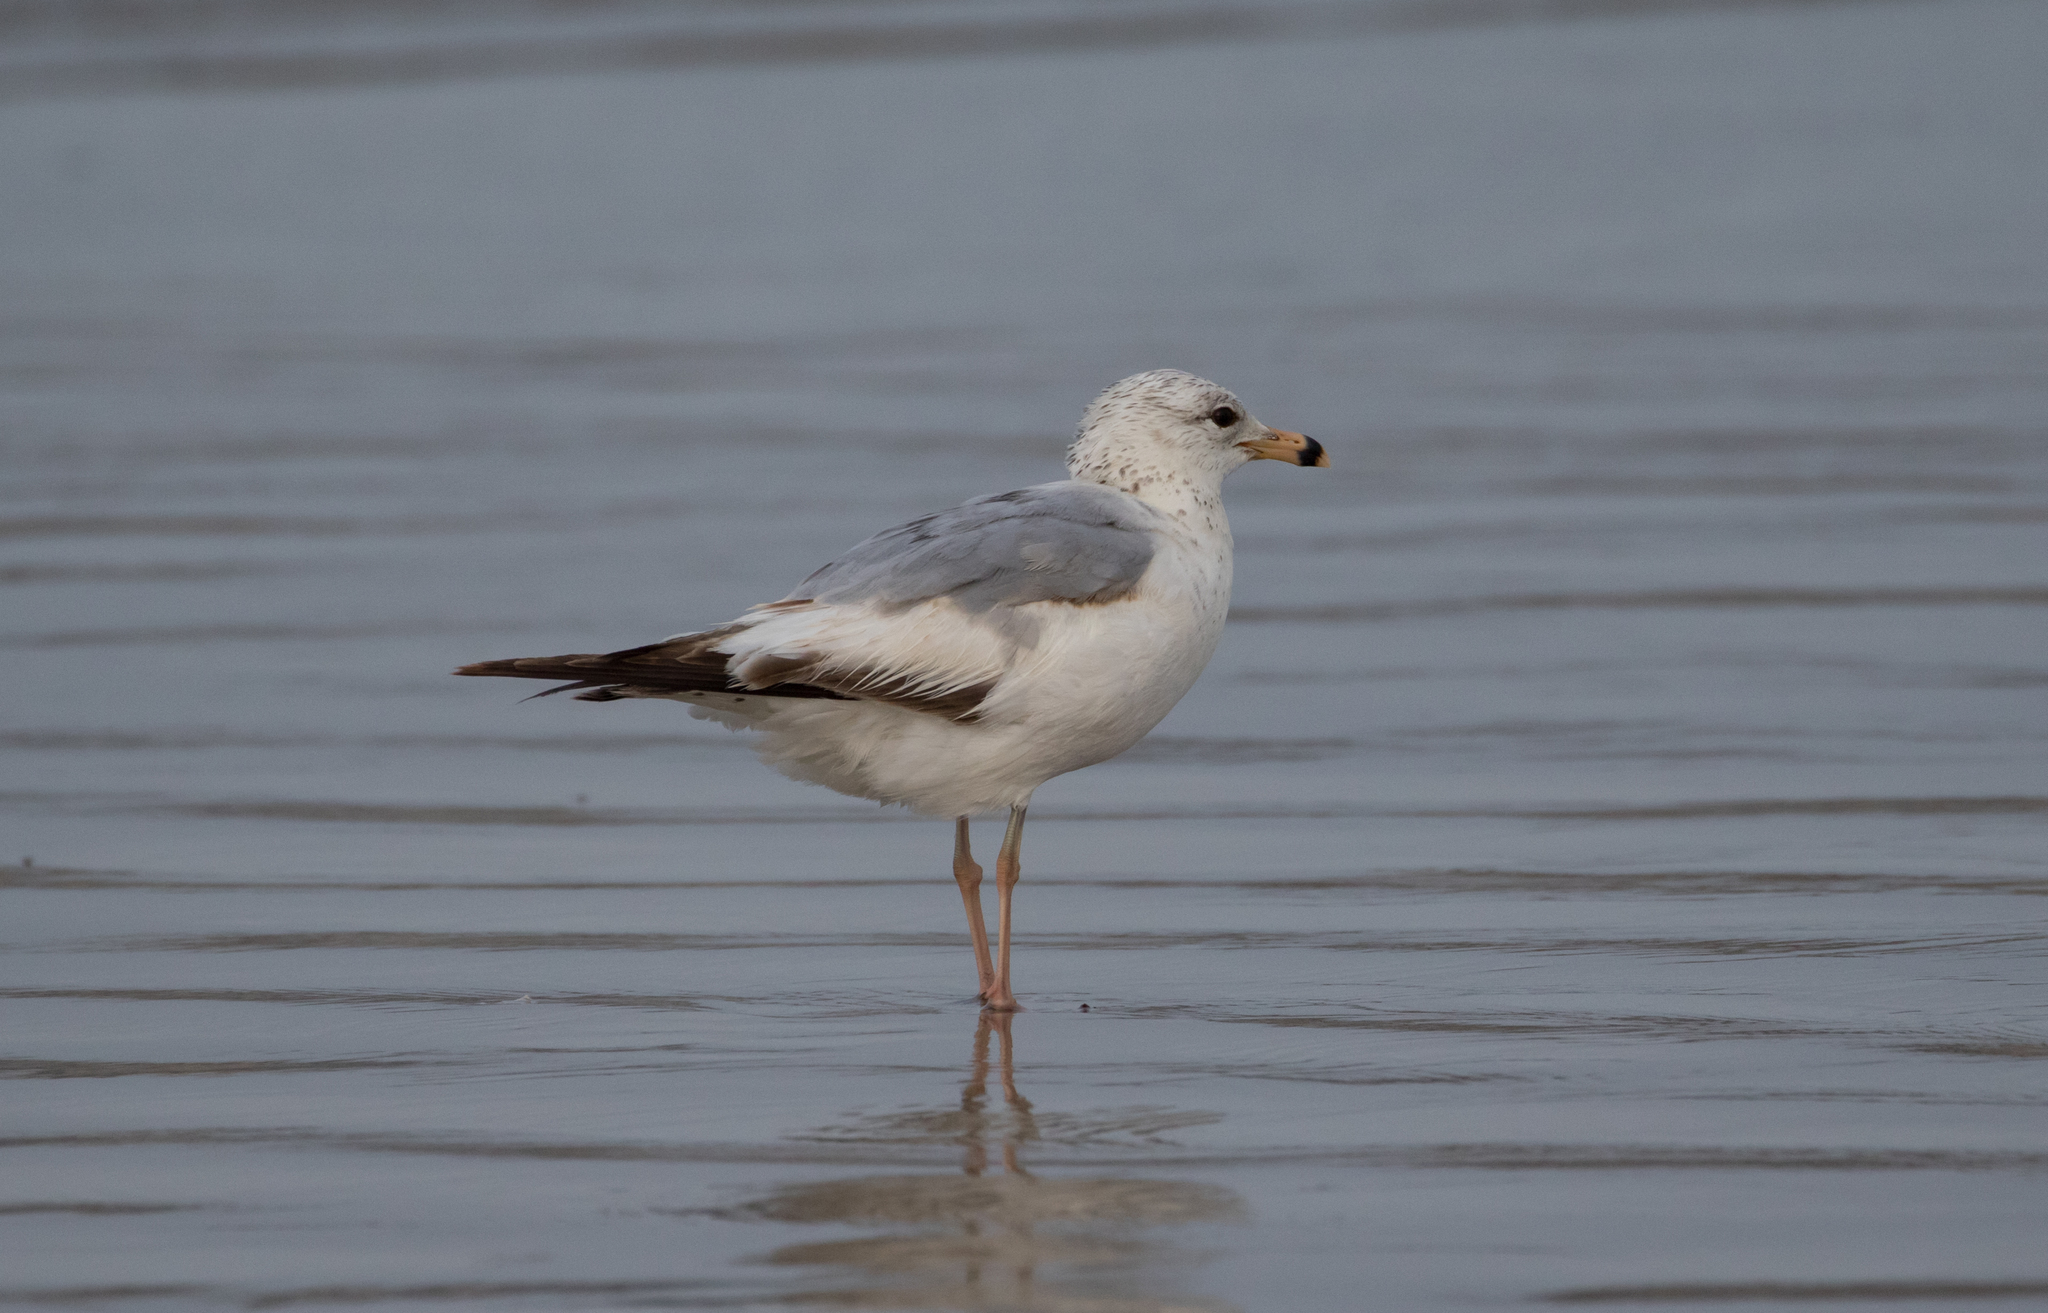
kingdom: Animalia
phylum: Chordata
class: Aves
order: Charadriiformes
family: Laridae
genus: Larus
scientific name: Larus delawarensis
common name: Ring-billed gull
